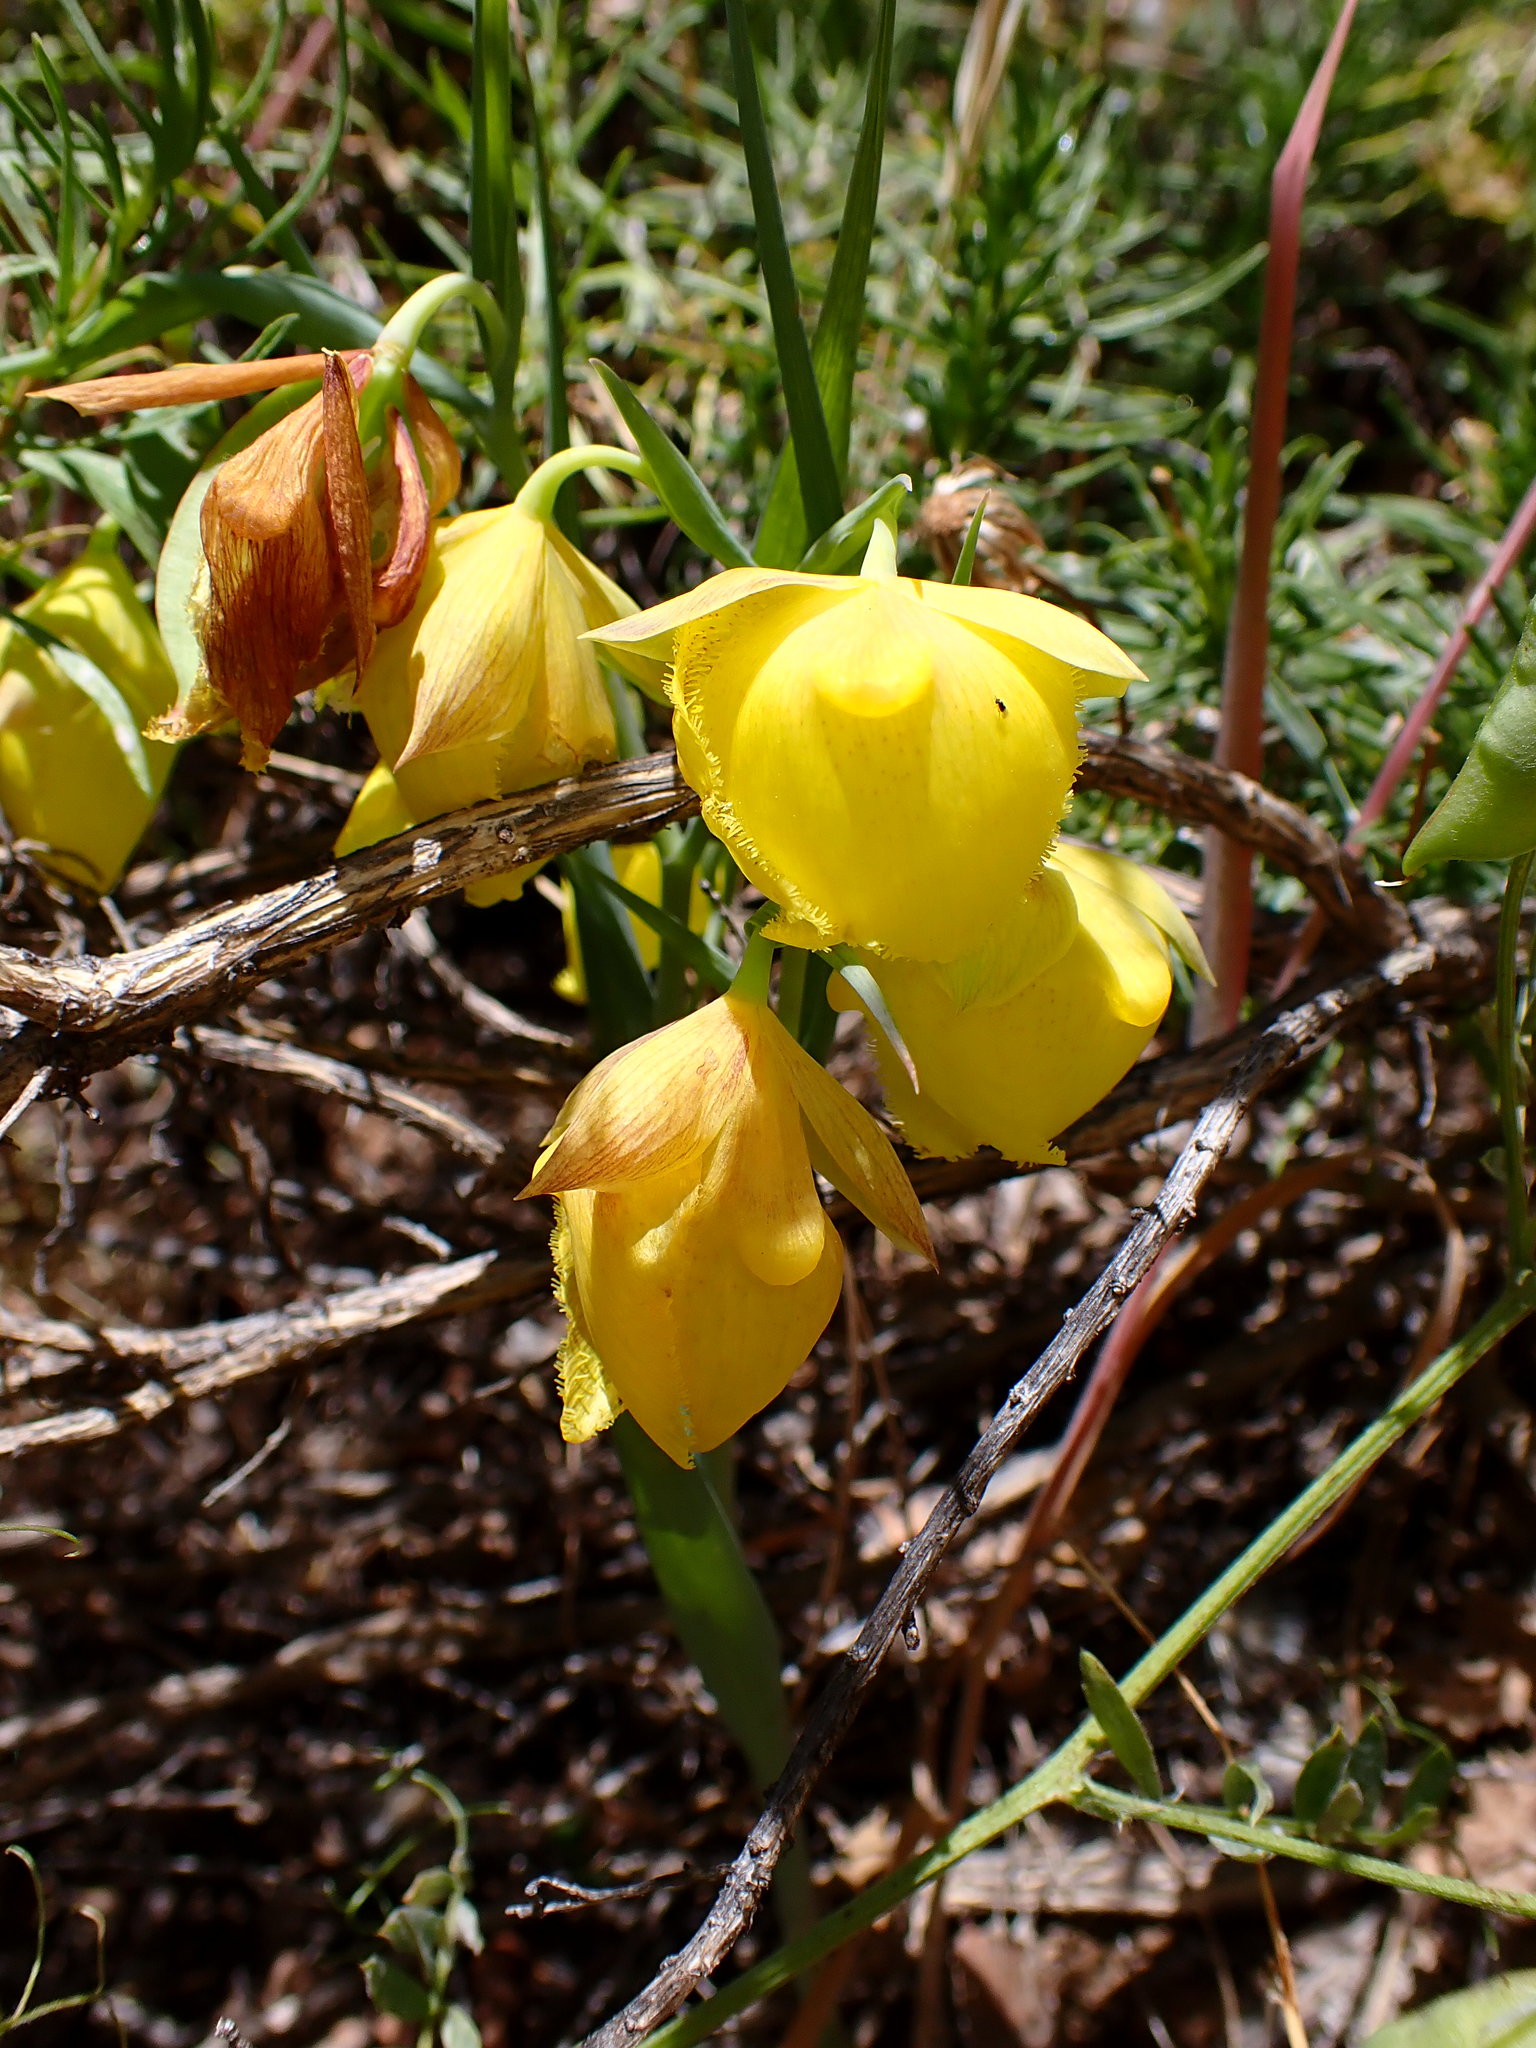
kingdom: Plantae
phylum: Tracheophyta
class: Liliopsida
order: Liliales
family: Liliaceae
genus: Calochortus
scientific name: Calochortus pulchellus
